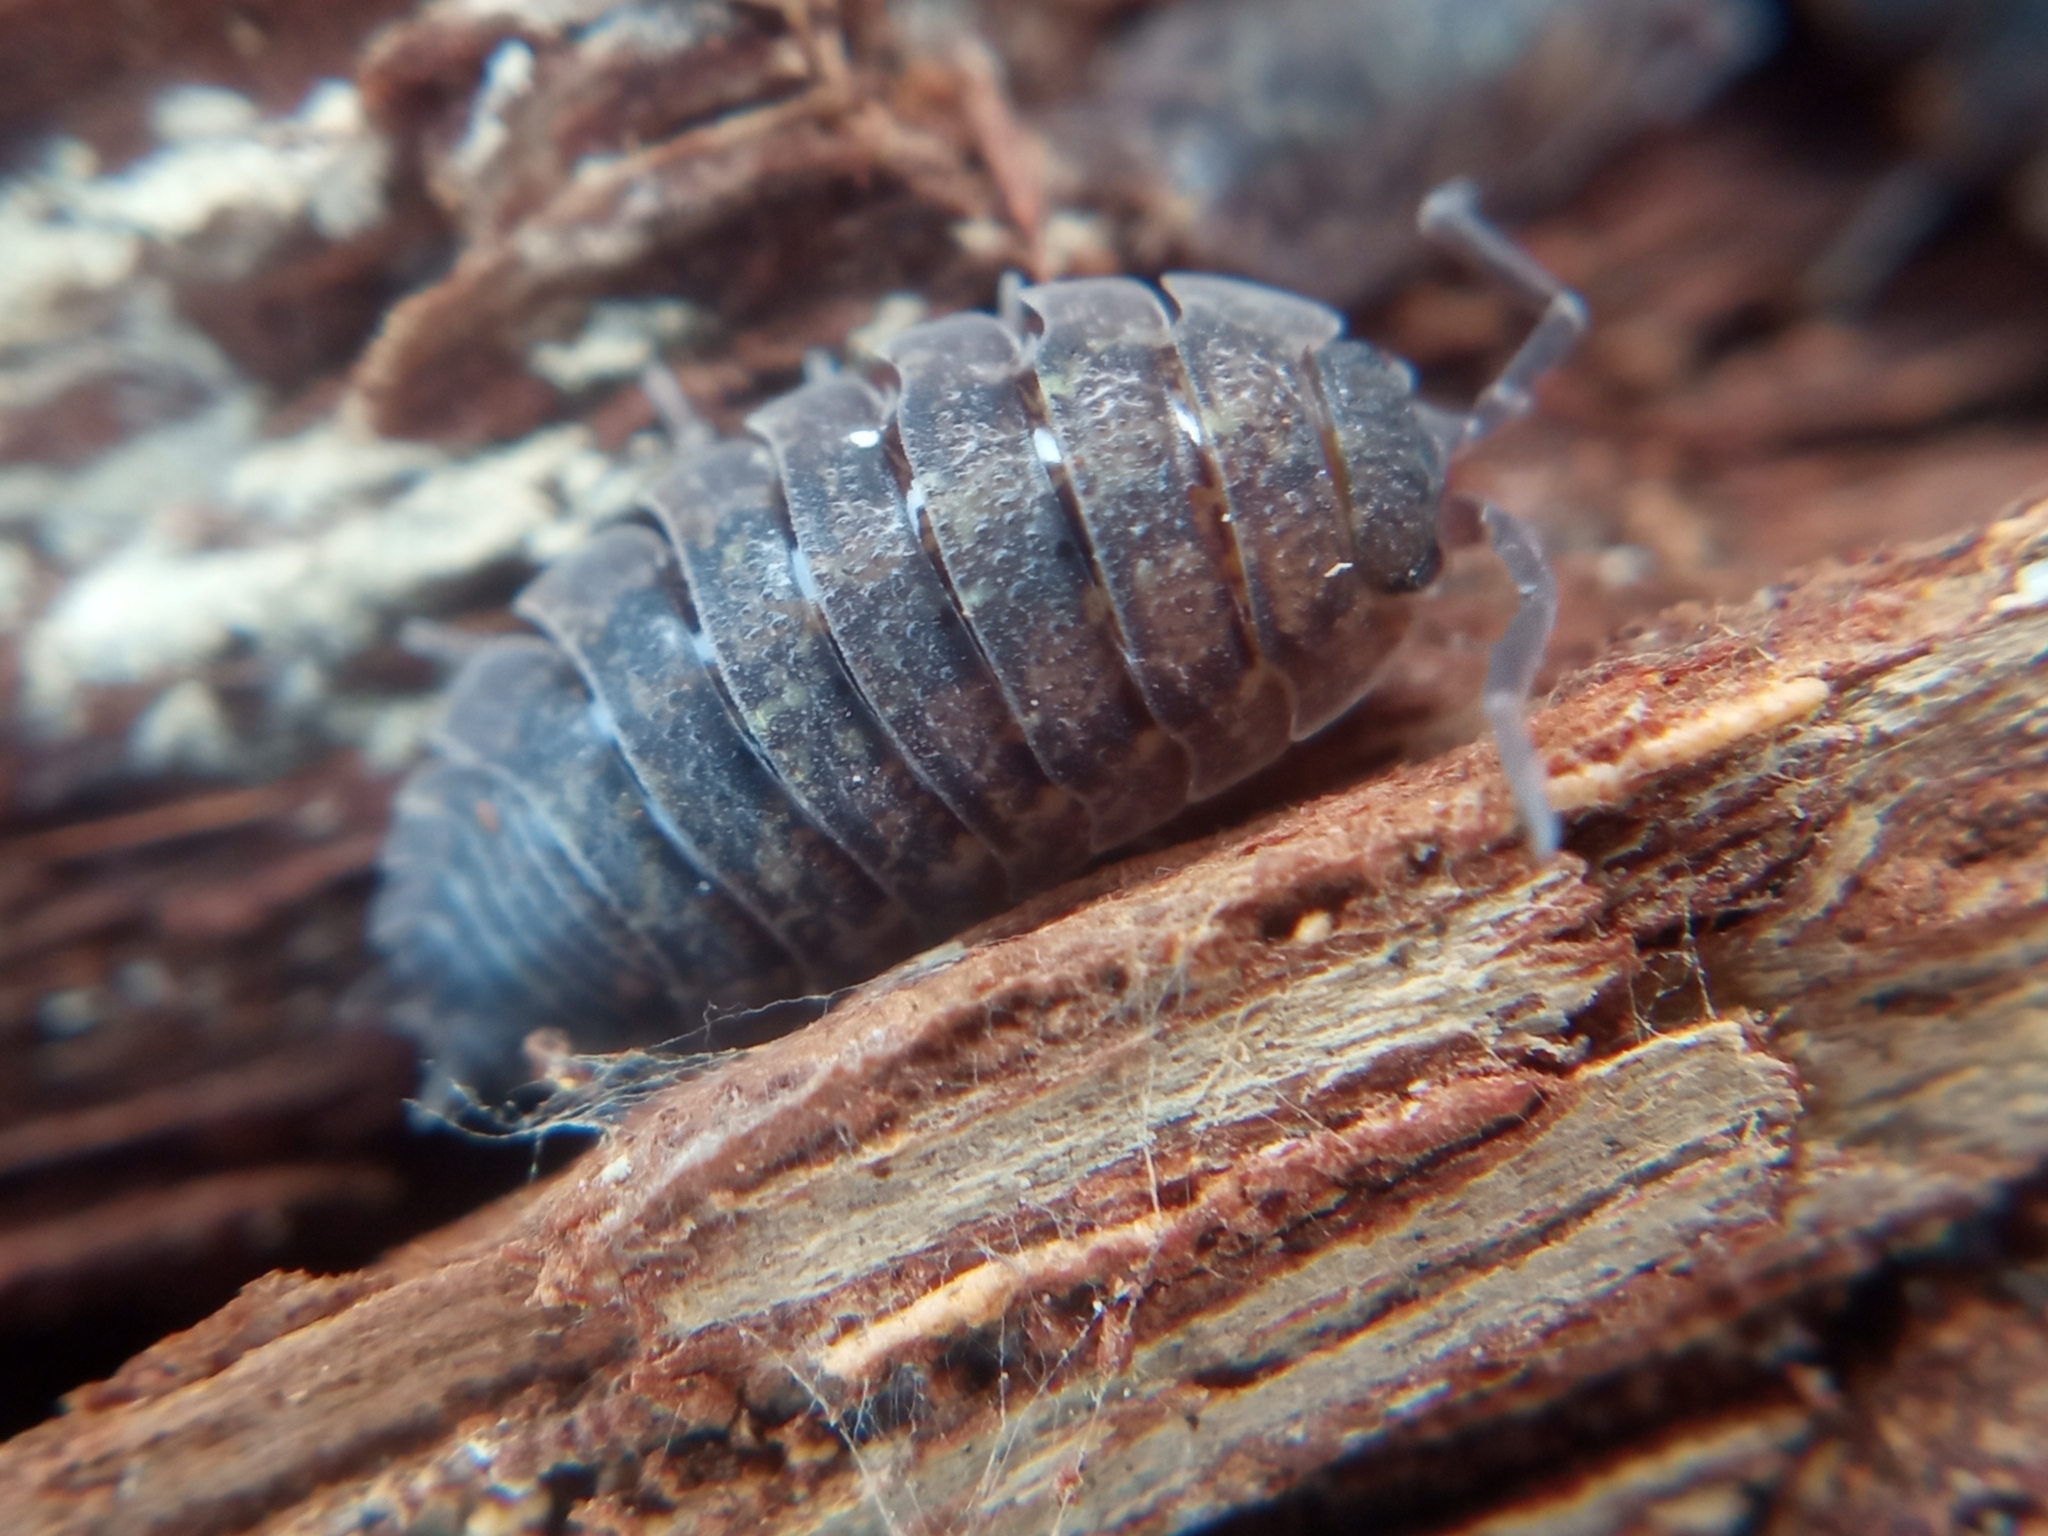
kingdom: Animalia
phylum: Arthropoda
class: Malacostraca
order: Isopoda
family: Porcellionidae
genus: Porcellio
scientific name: Porcellio scaber
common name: Common rough woodlouse
